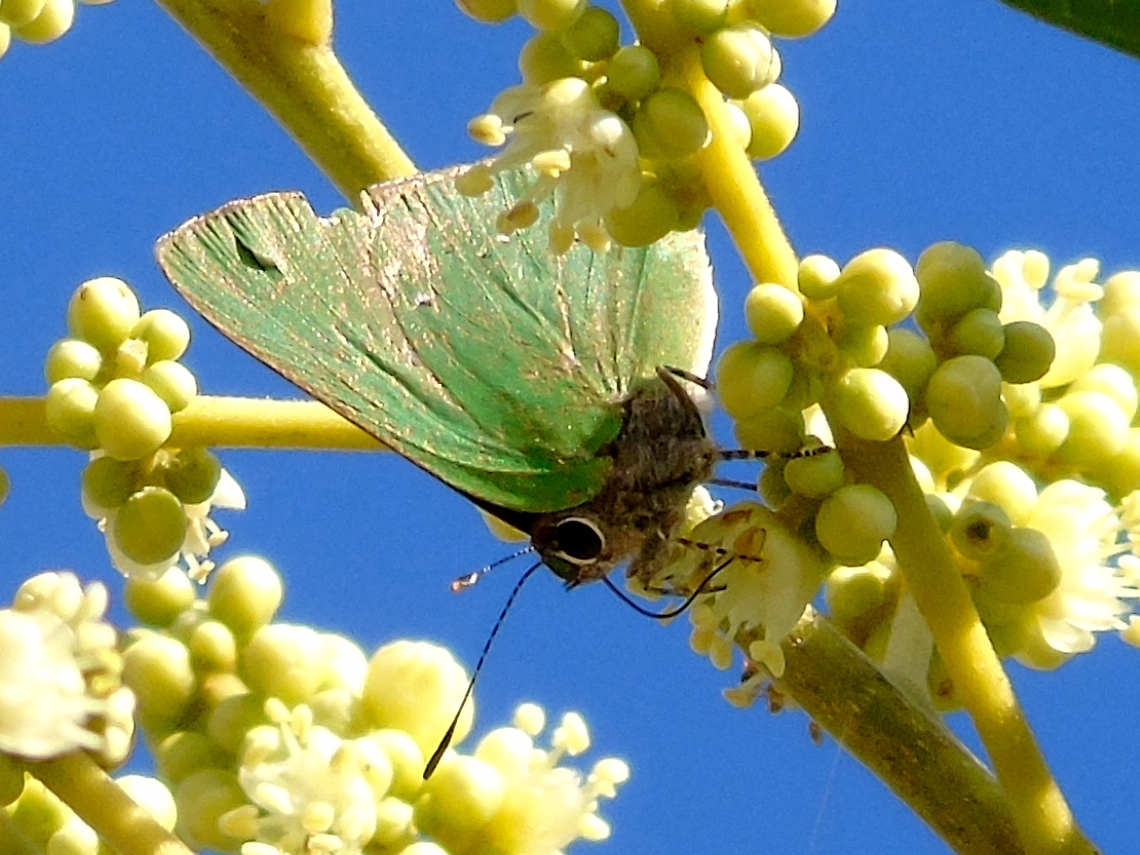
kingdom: Animalia
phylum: Arthropoda
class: Insecta
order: Lepidoptera
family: Lycaenidae
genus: Cyanophrys
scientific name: Cyanophrys
